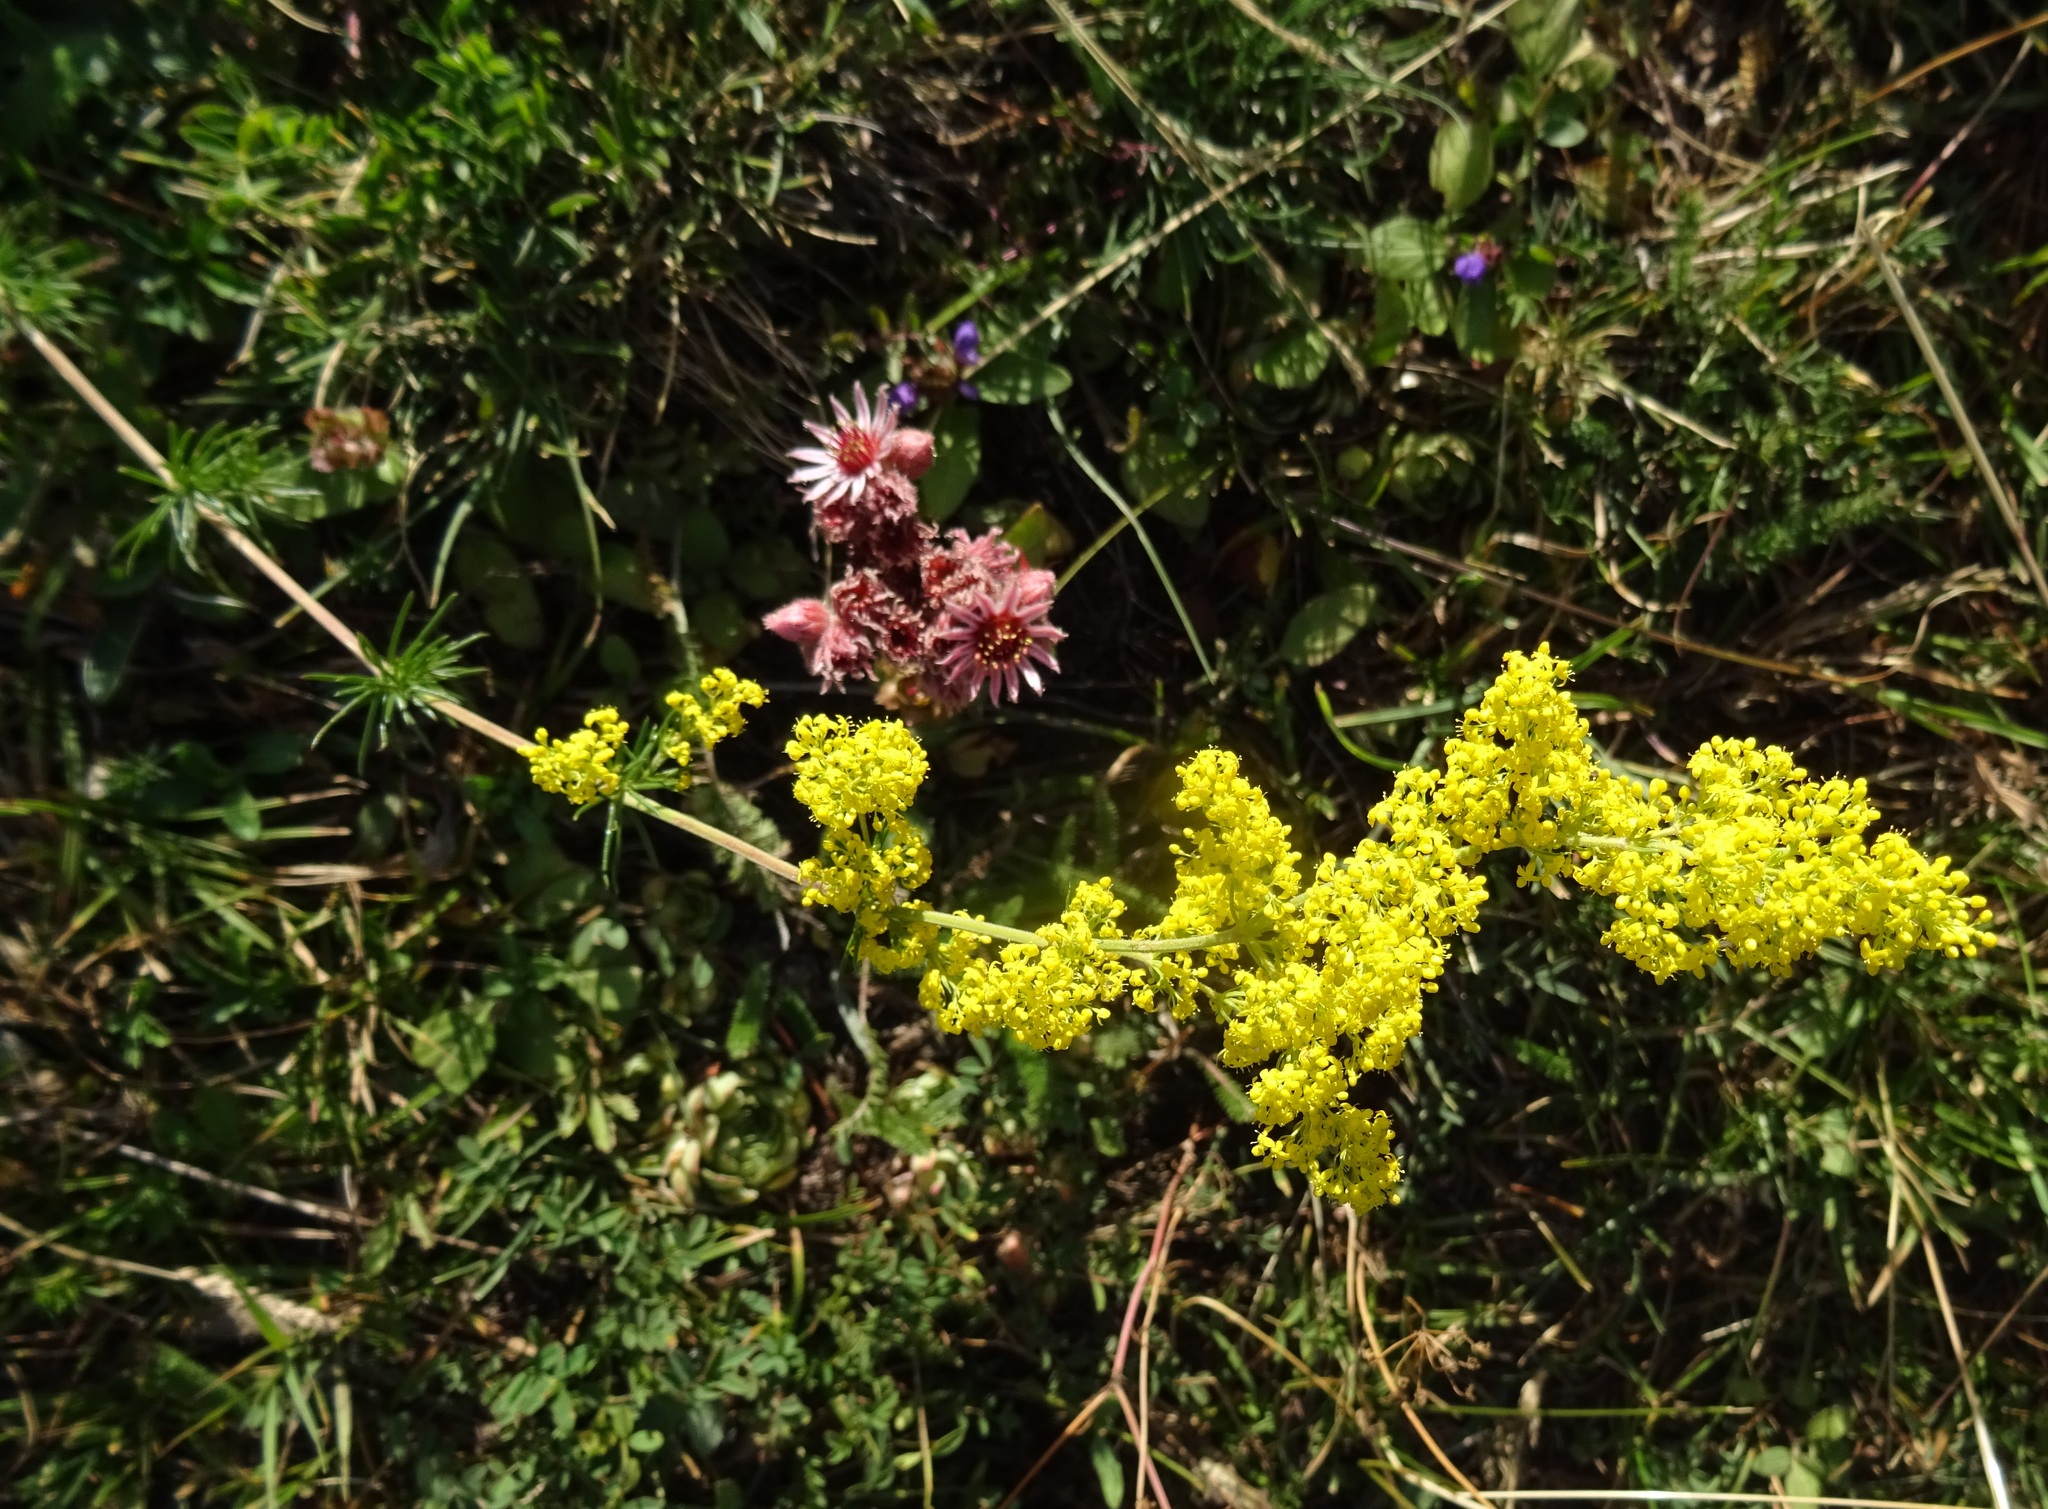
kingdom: Plantae
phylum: Tracheophyta
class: Magnoliopsida
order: Gentianales
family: Rubiaceae
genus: Galium
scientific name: Galium verum
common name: Lady's bedstraw
